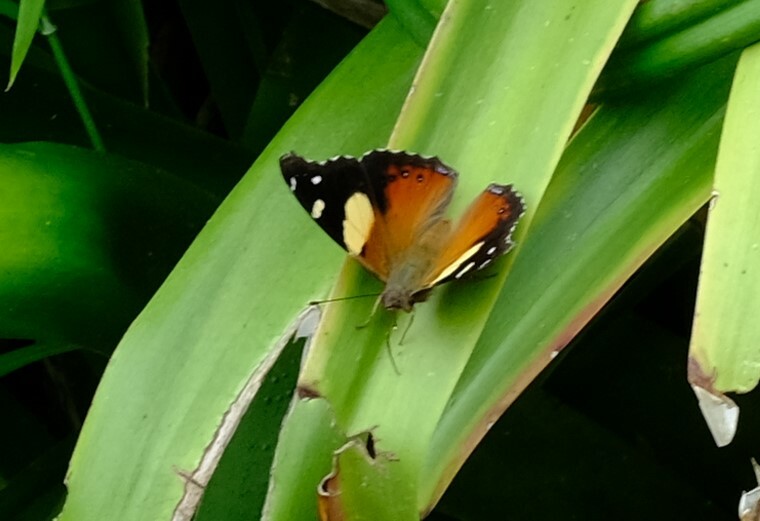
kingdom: Animalia
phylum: Arthropoda
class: Insecta
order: Lepidoptera
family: Nymphalidae
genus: Vanessa
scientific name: Vanessa itea
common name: Yellow admiral
